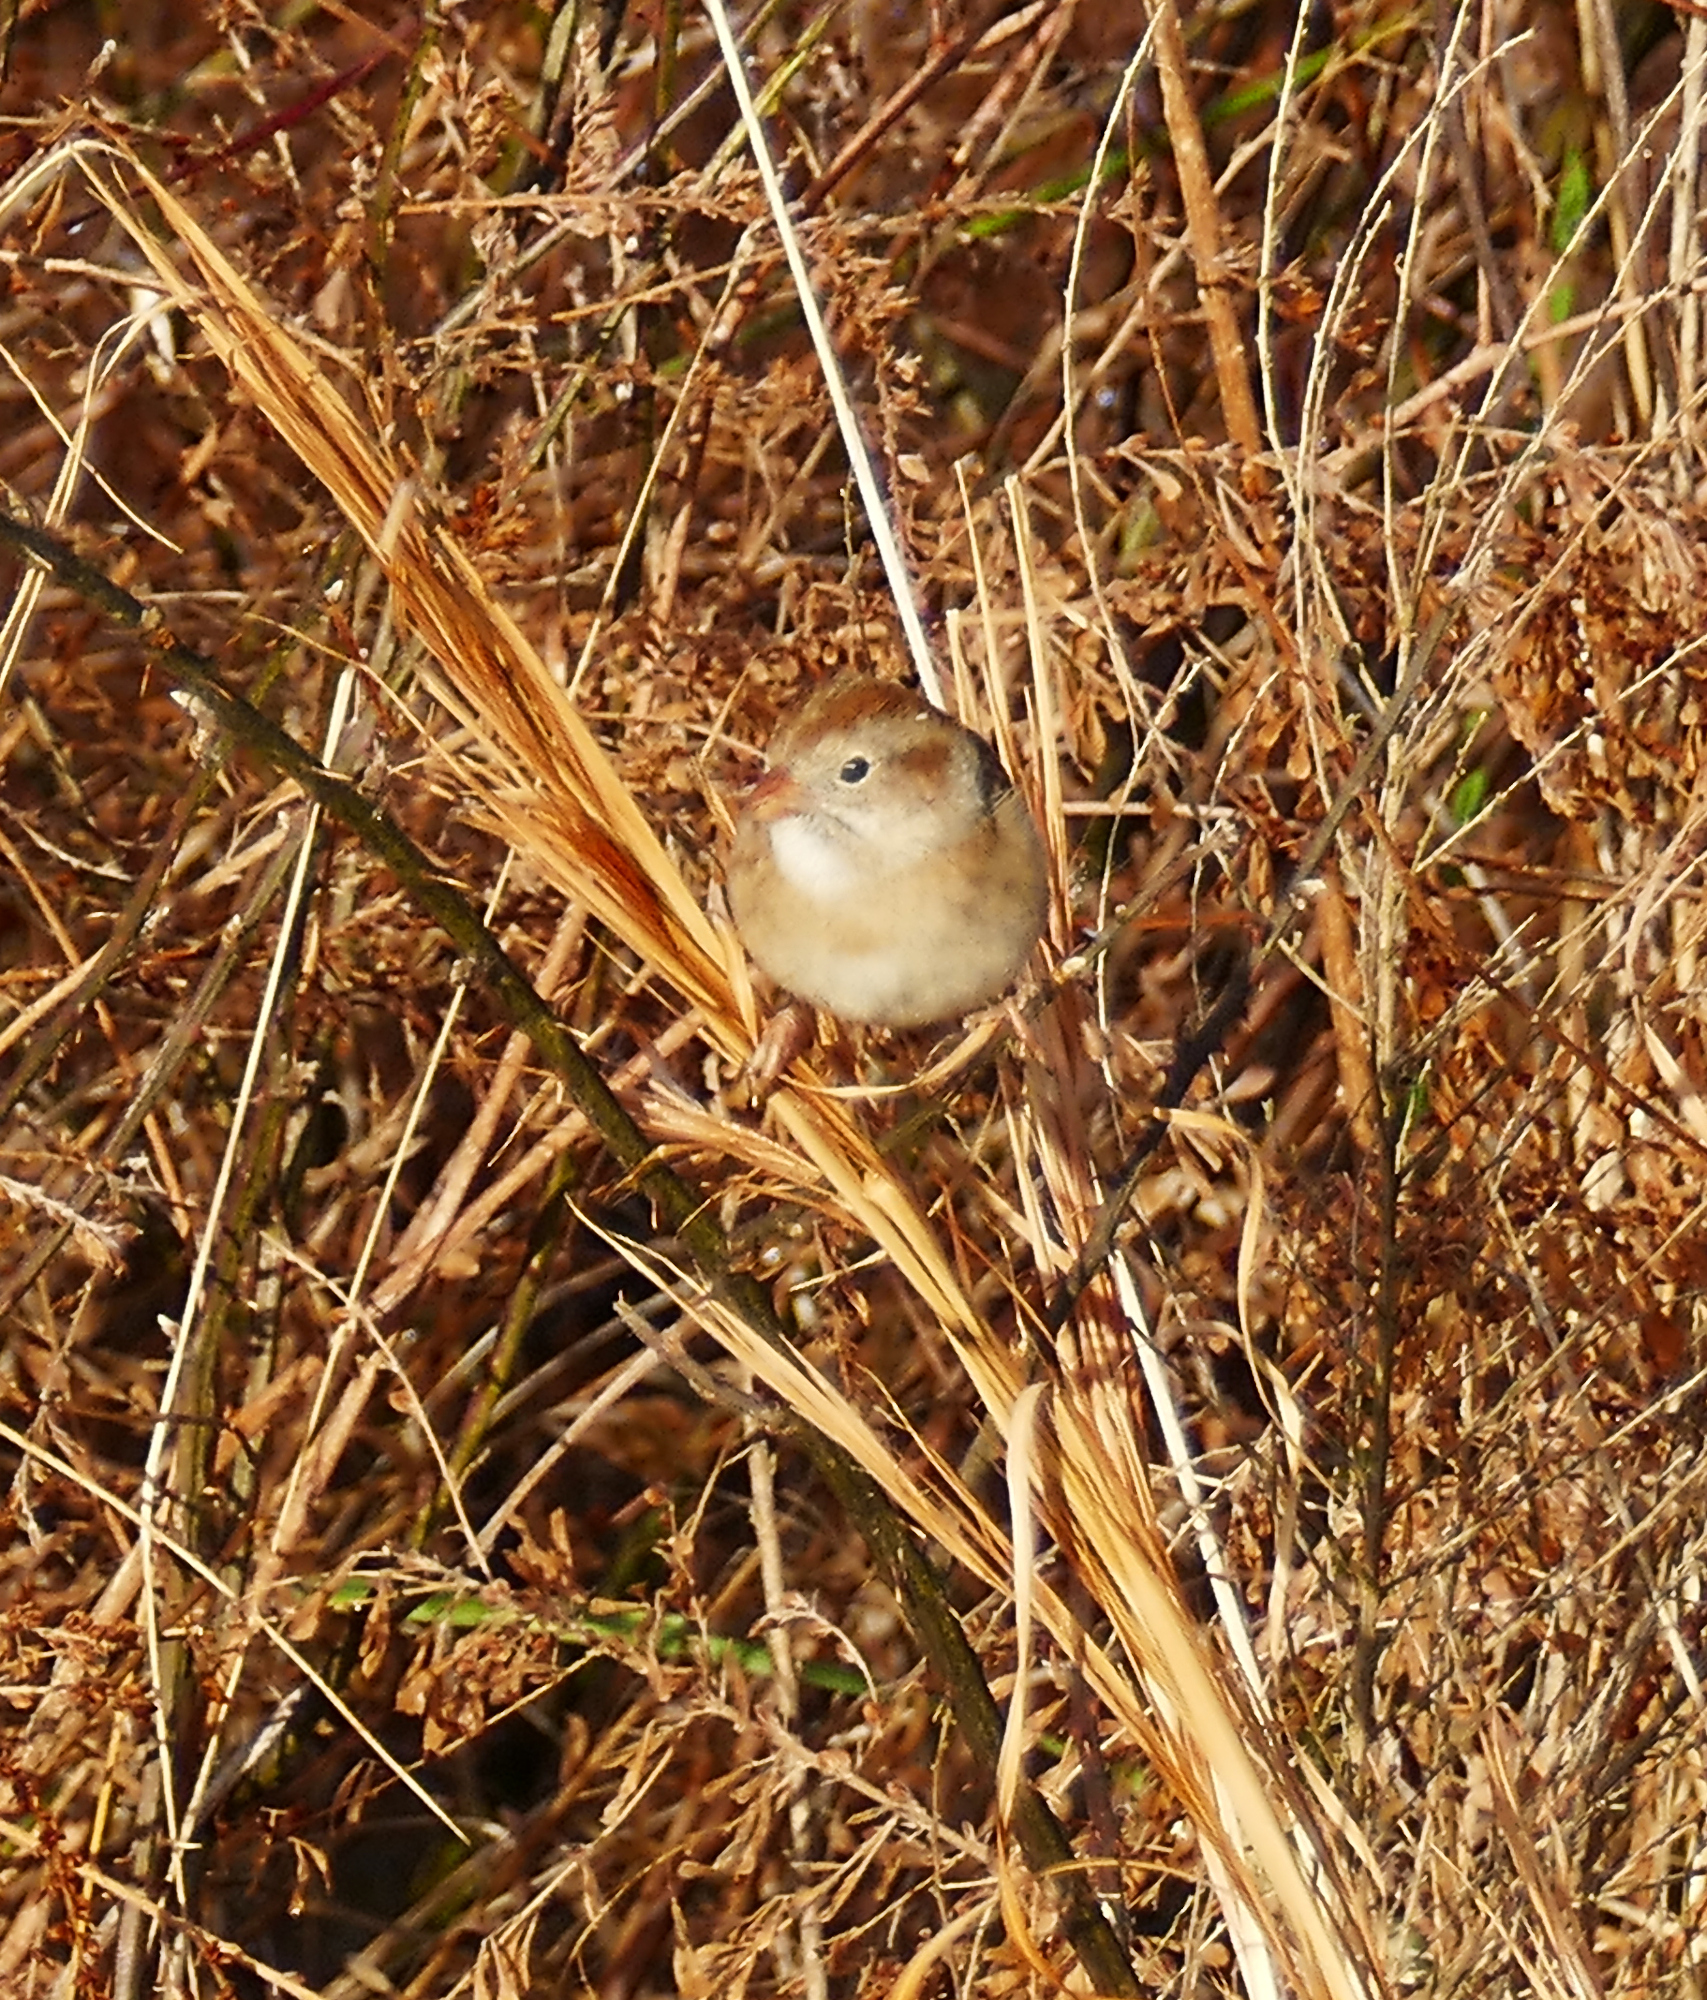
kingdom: Animalia
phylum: Chordata
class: Aves
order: Passeriformes
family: Passerellidae
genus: Spizella
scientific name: Spizella pusilla
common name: Field sparrow
